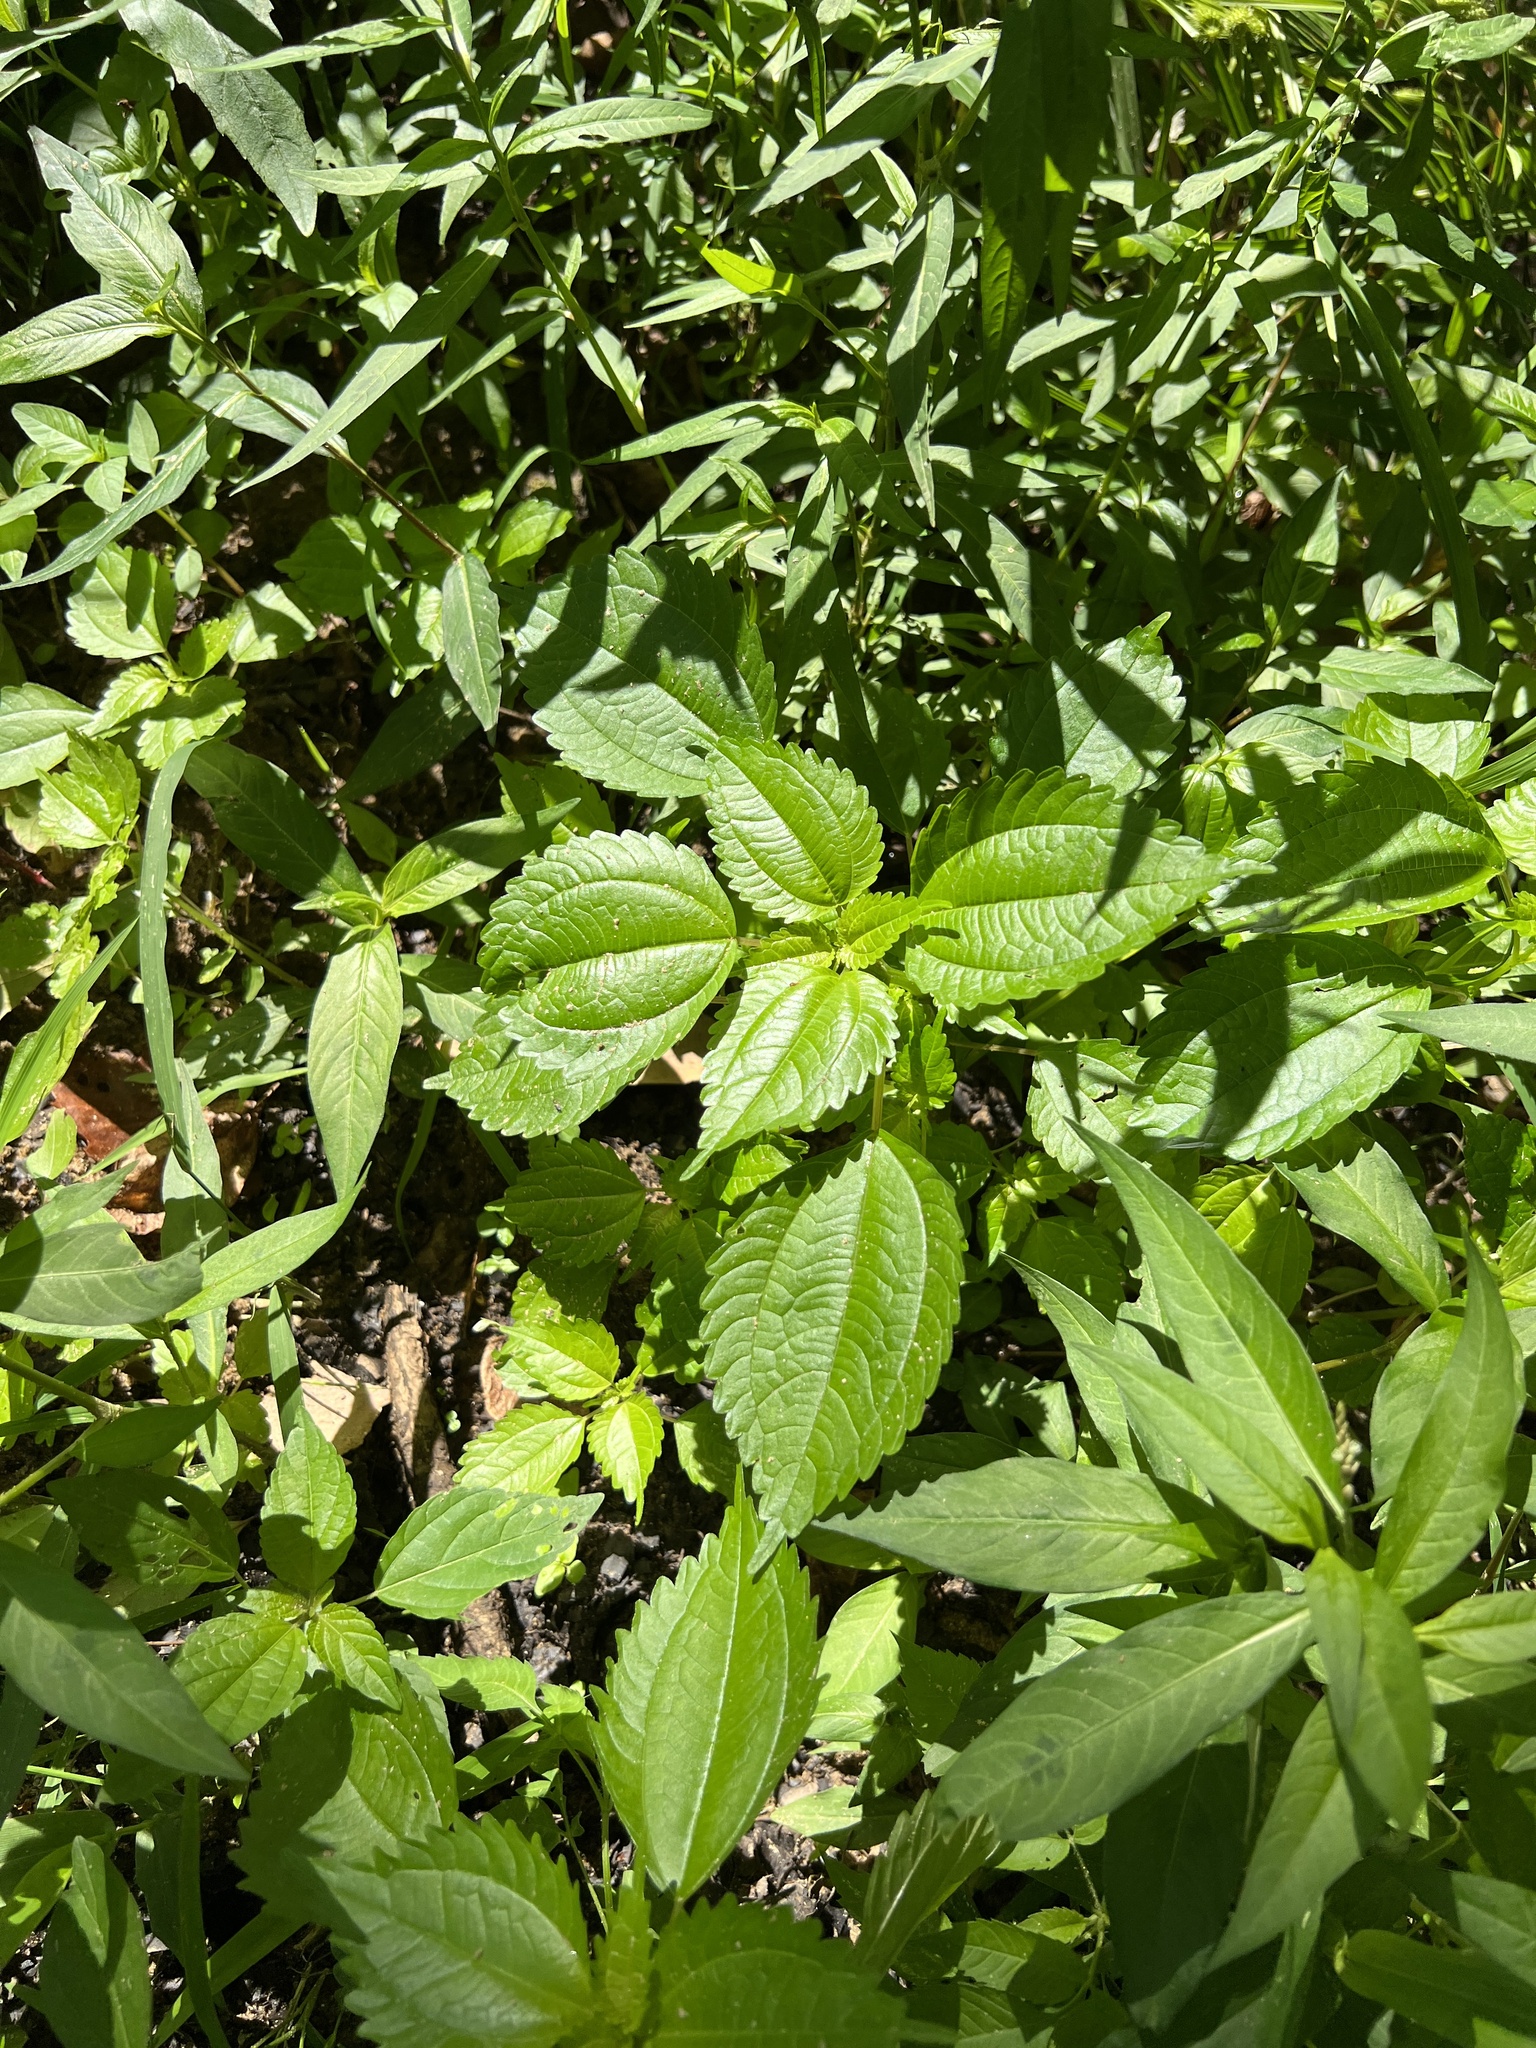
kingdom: Plantae
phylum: Tracheophyta
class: Magnoliopsida
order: Rosales
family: Urticaceae
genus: Pilea
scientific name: Pilea pumila
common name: Clearweed
